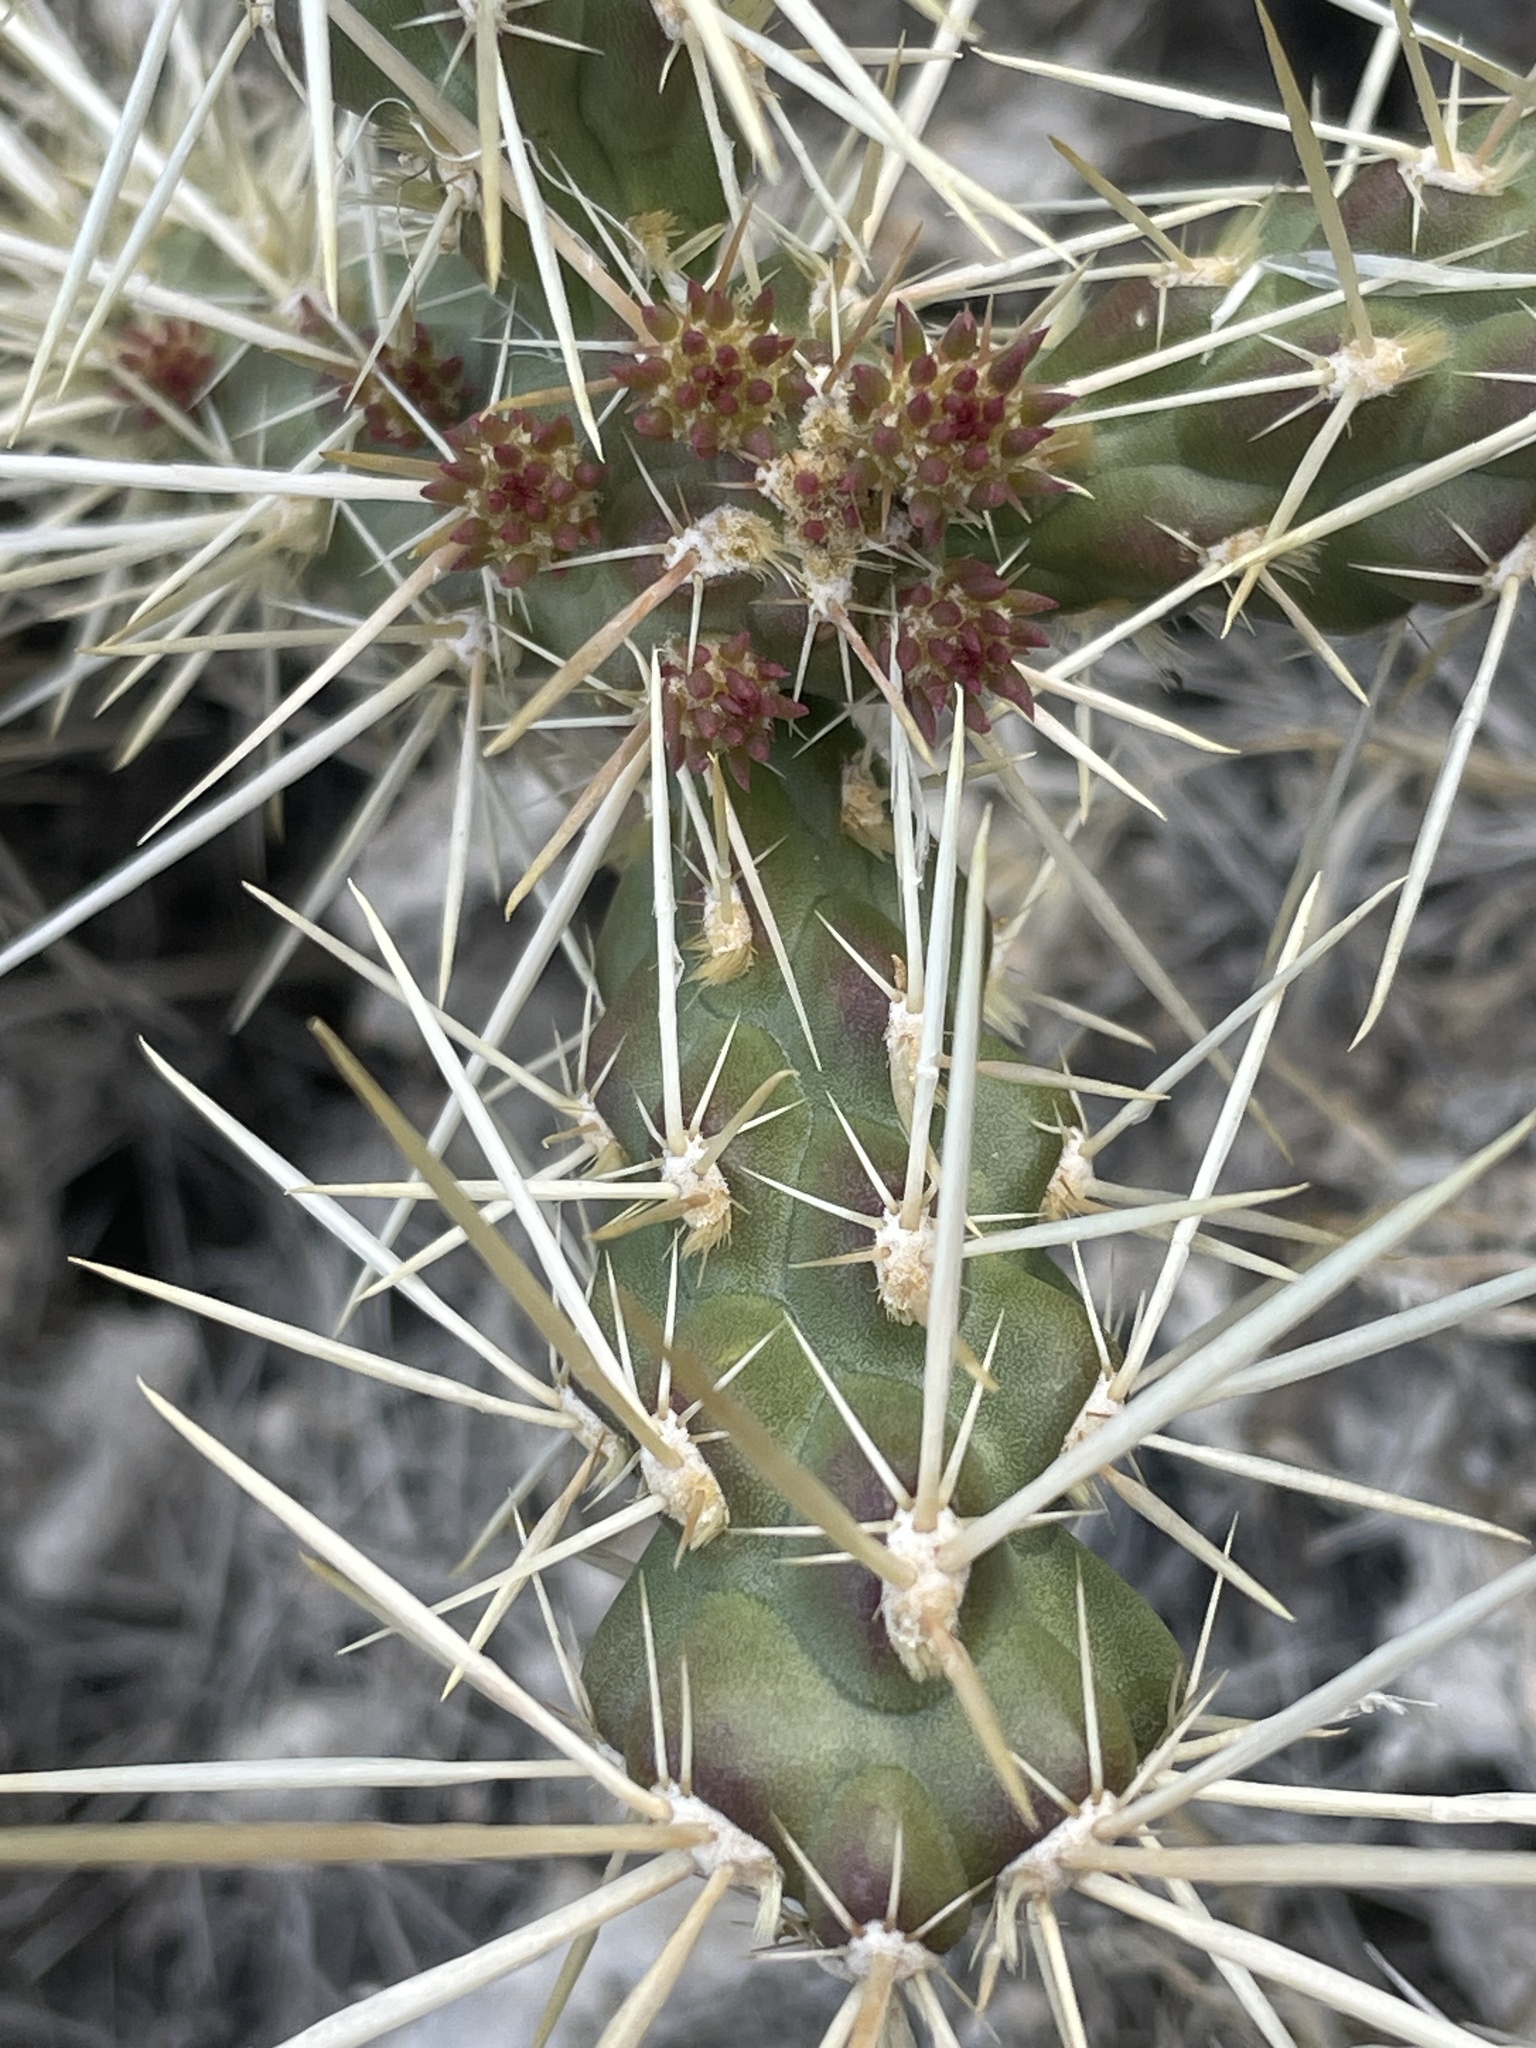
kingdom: Plantae
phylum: Tracheophyta
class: Magnoliopsida
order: Caryophyllales
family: Cactaceae
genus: Cylindropuntia
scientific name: Cylindropuntia whipplei
